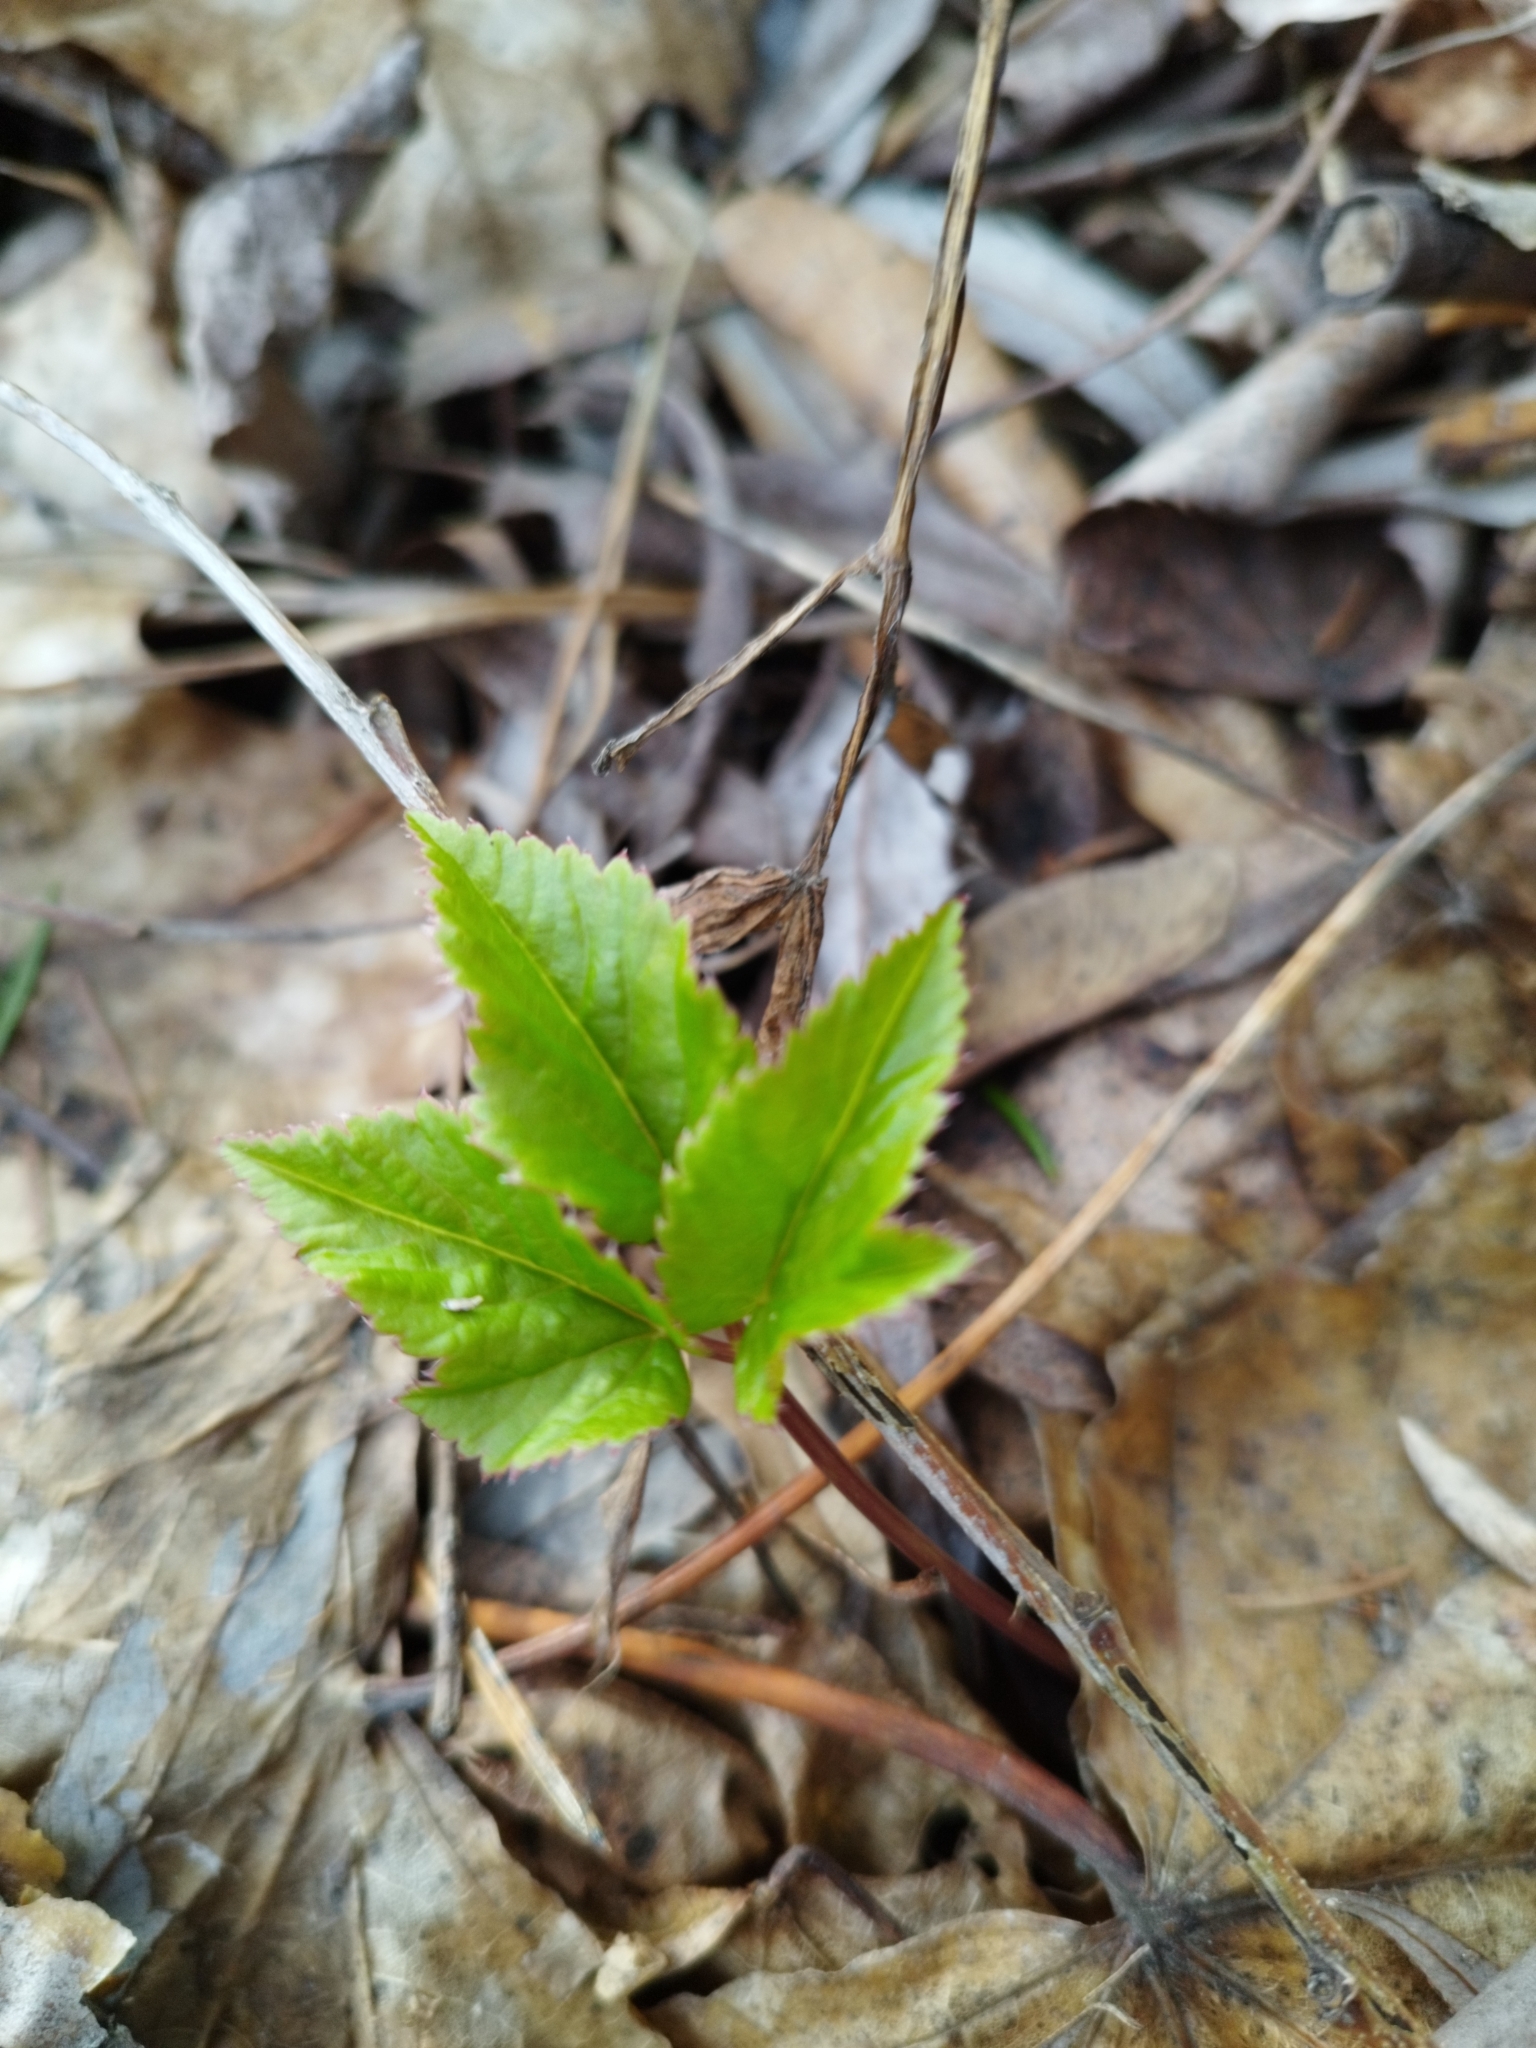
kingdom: Plantae
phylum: Tracheophyta
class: Magnoliopsida
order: Apiales
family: Apiaceae
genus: Aegopodium
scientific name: Aegopodium podagraria
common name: Ground-elder
